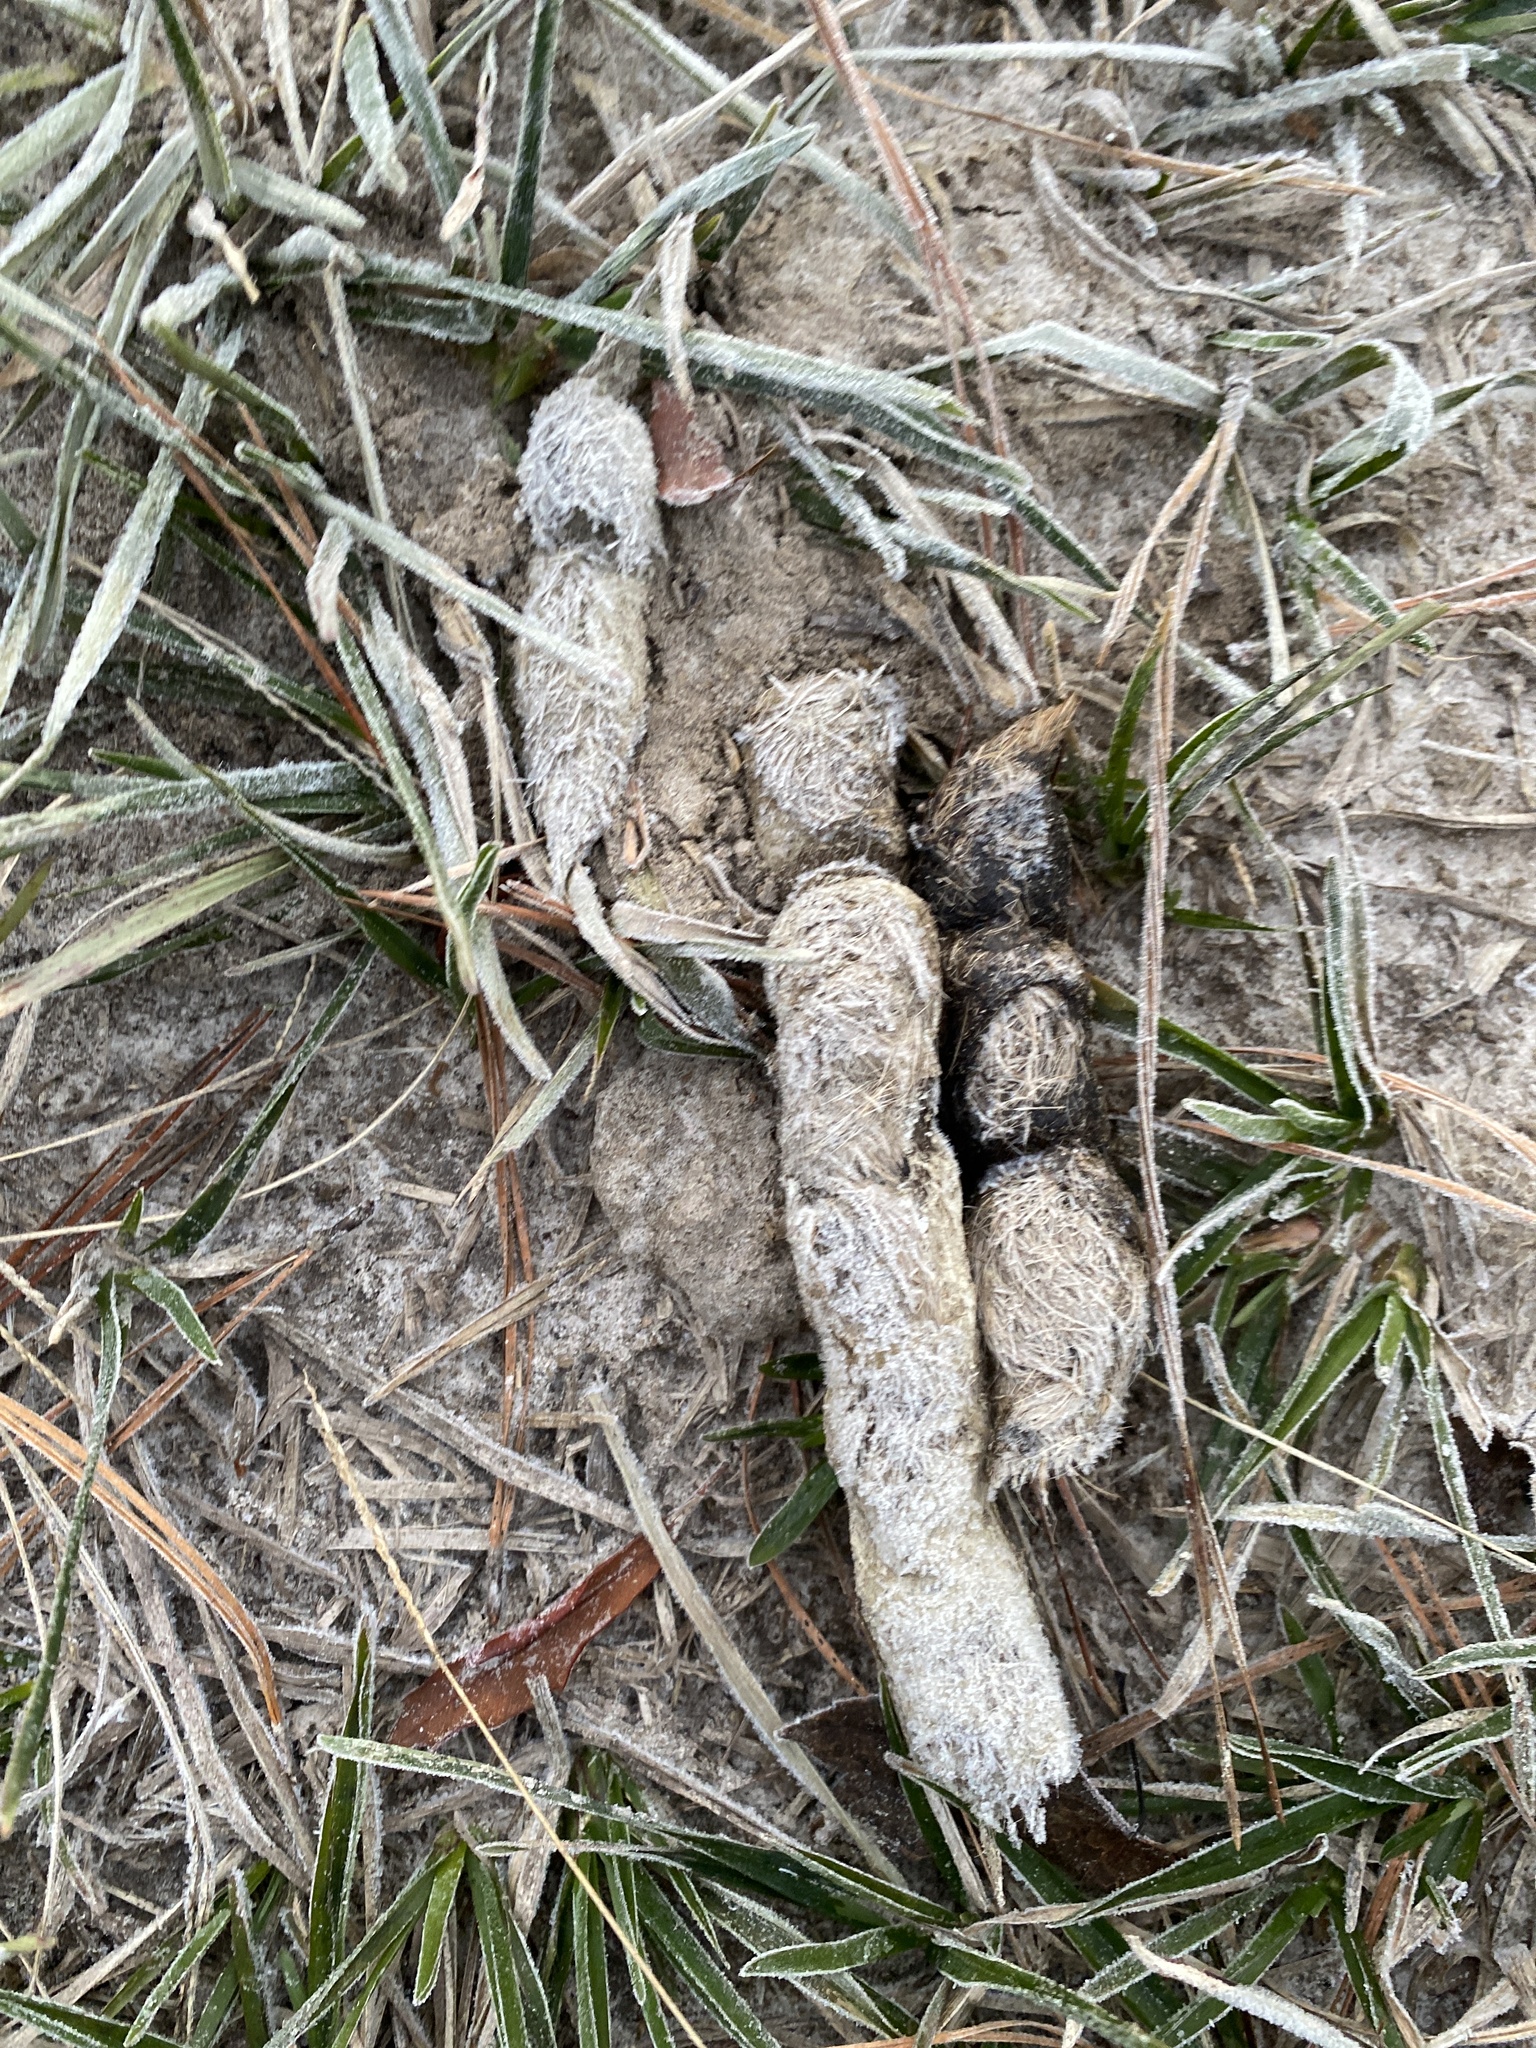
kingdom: Animalia
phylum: Chordata
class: Mammalia
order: Carnivora
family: Canidae
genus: Canis
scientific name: Canis latrans
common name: Coyote
